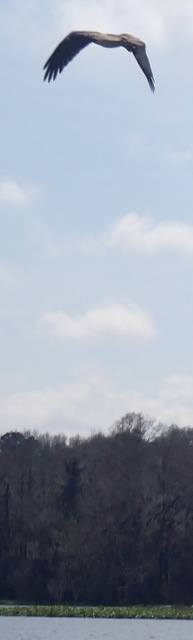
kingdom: Animalia
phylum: Chordata
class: Aves
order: Accipitriformes
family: Pandionidae
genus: Pandion
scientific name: Pandion haliaetus
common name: Osprey
